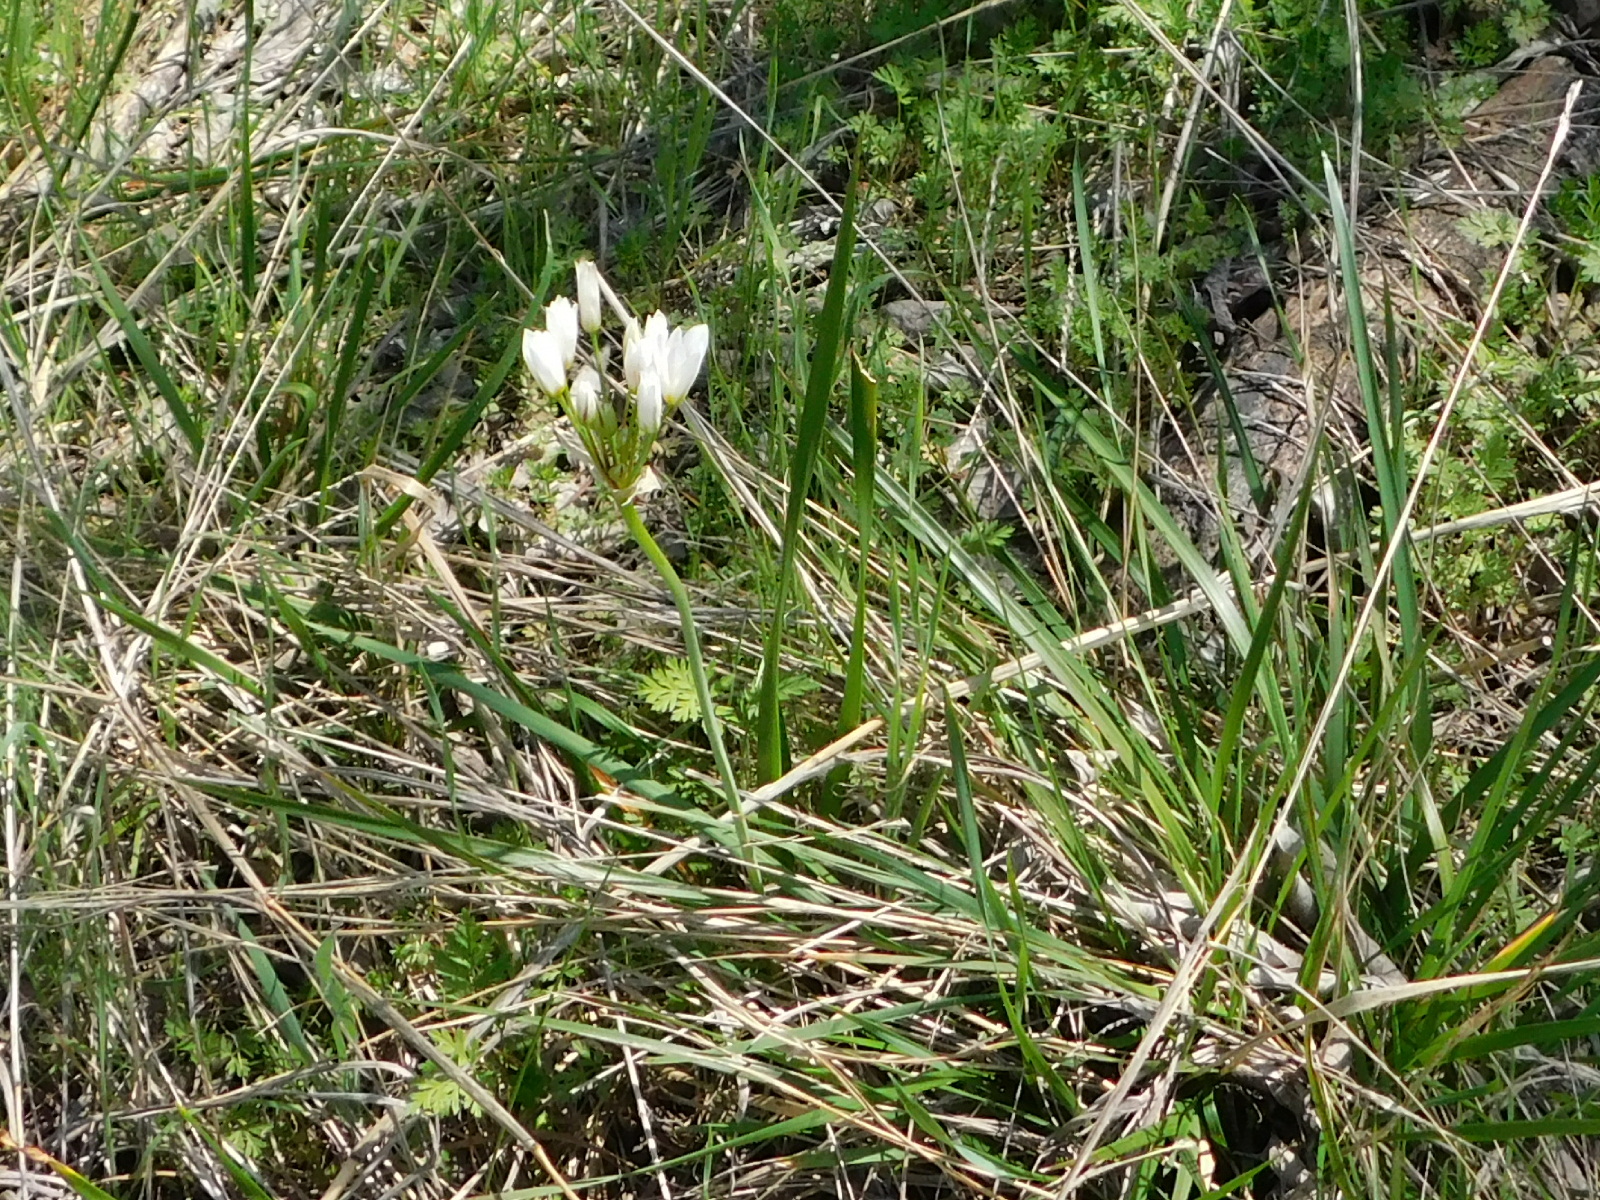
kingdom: Plantae
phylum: Tracheophyta
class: Liliopsida
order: Asparagales
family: Amaryllidaceae
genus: Nothoscordum
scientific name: Nothoscordum bivalve
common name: Crow-poison
